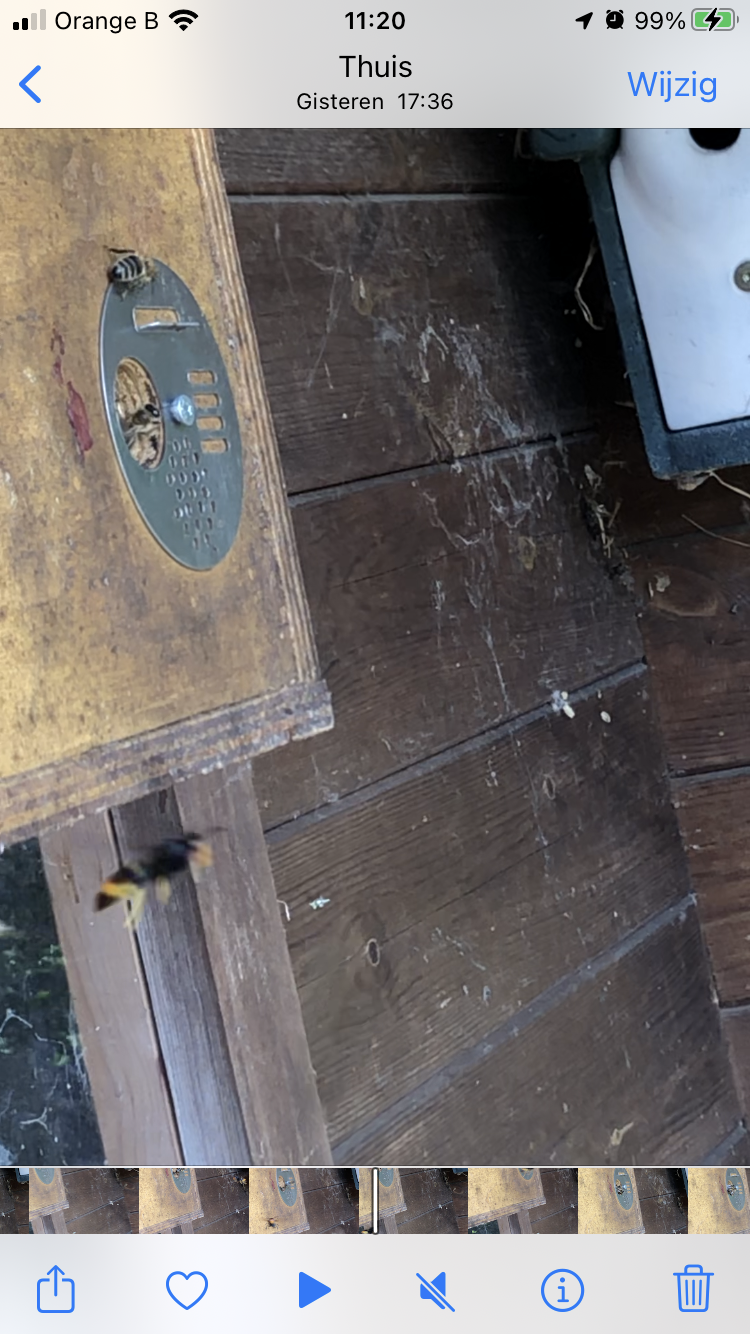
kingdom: Animalia
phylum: Arthropoda
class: Insecta
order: Hymenoptera
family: Vespidae
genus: Vespa
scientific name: Vespa velutina
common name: Asian hornet
